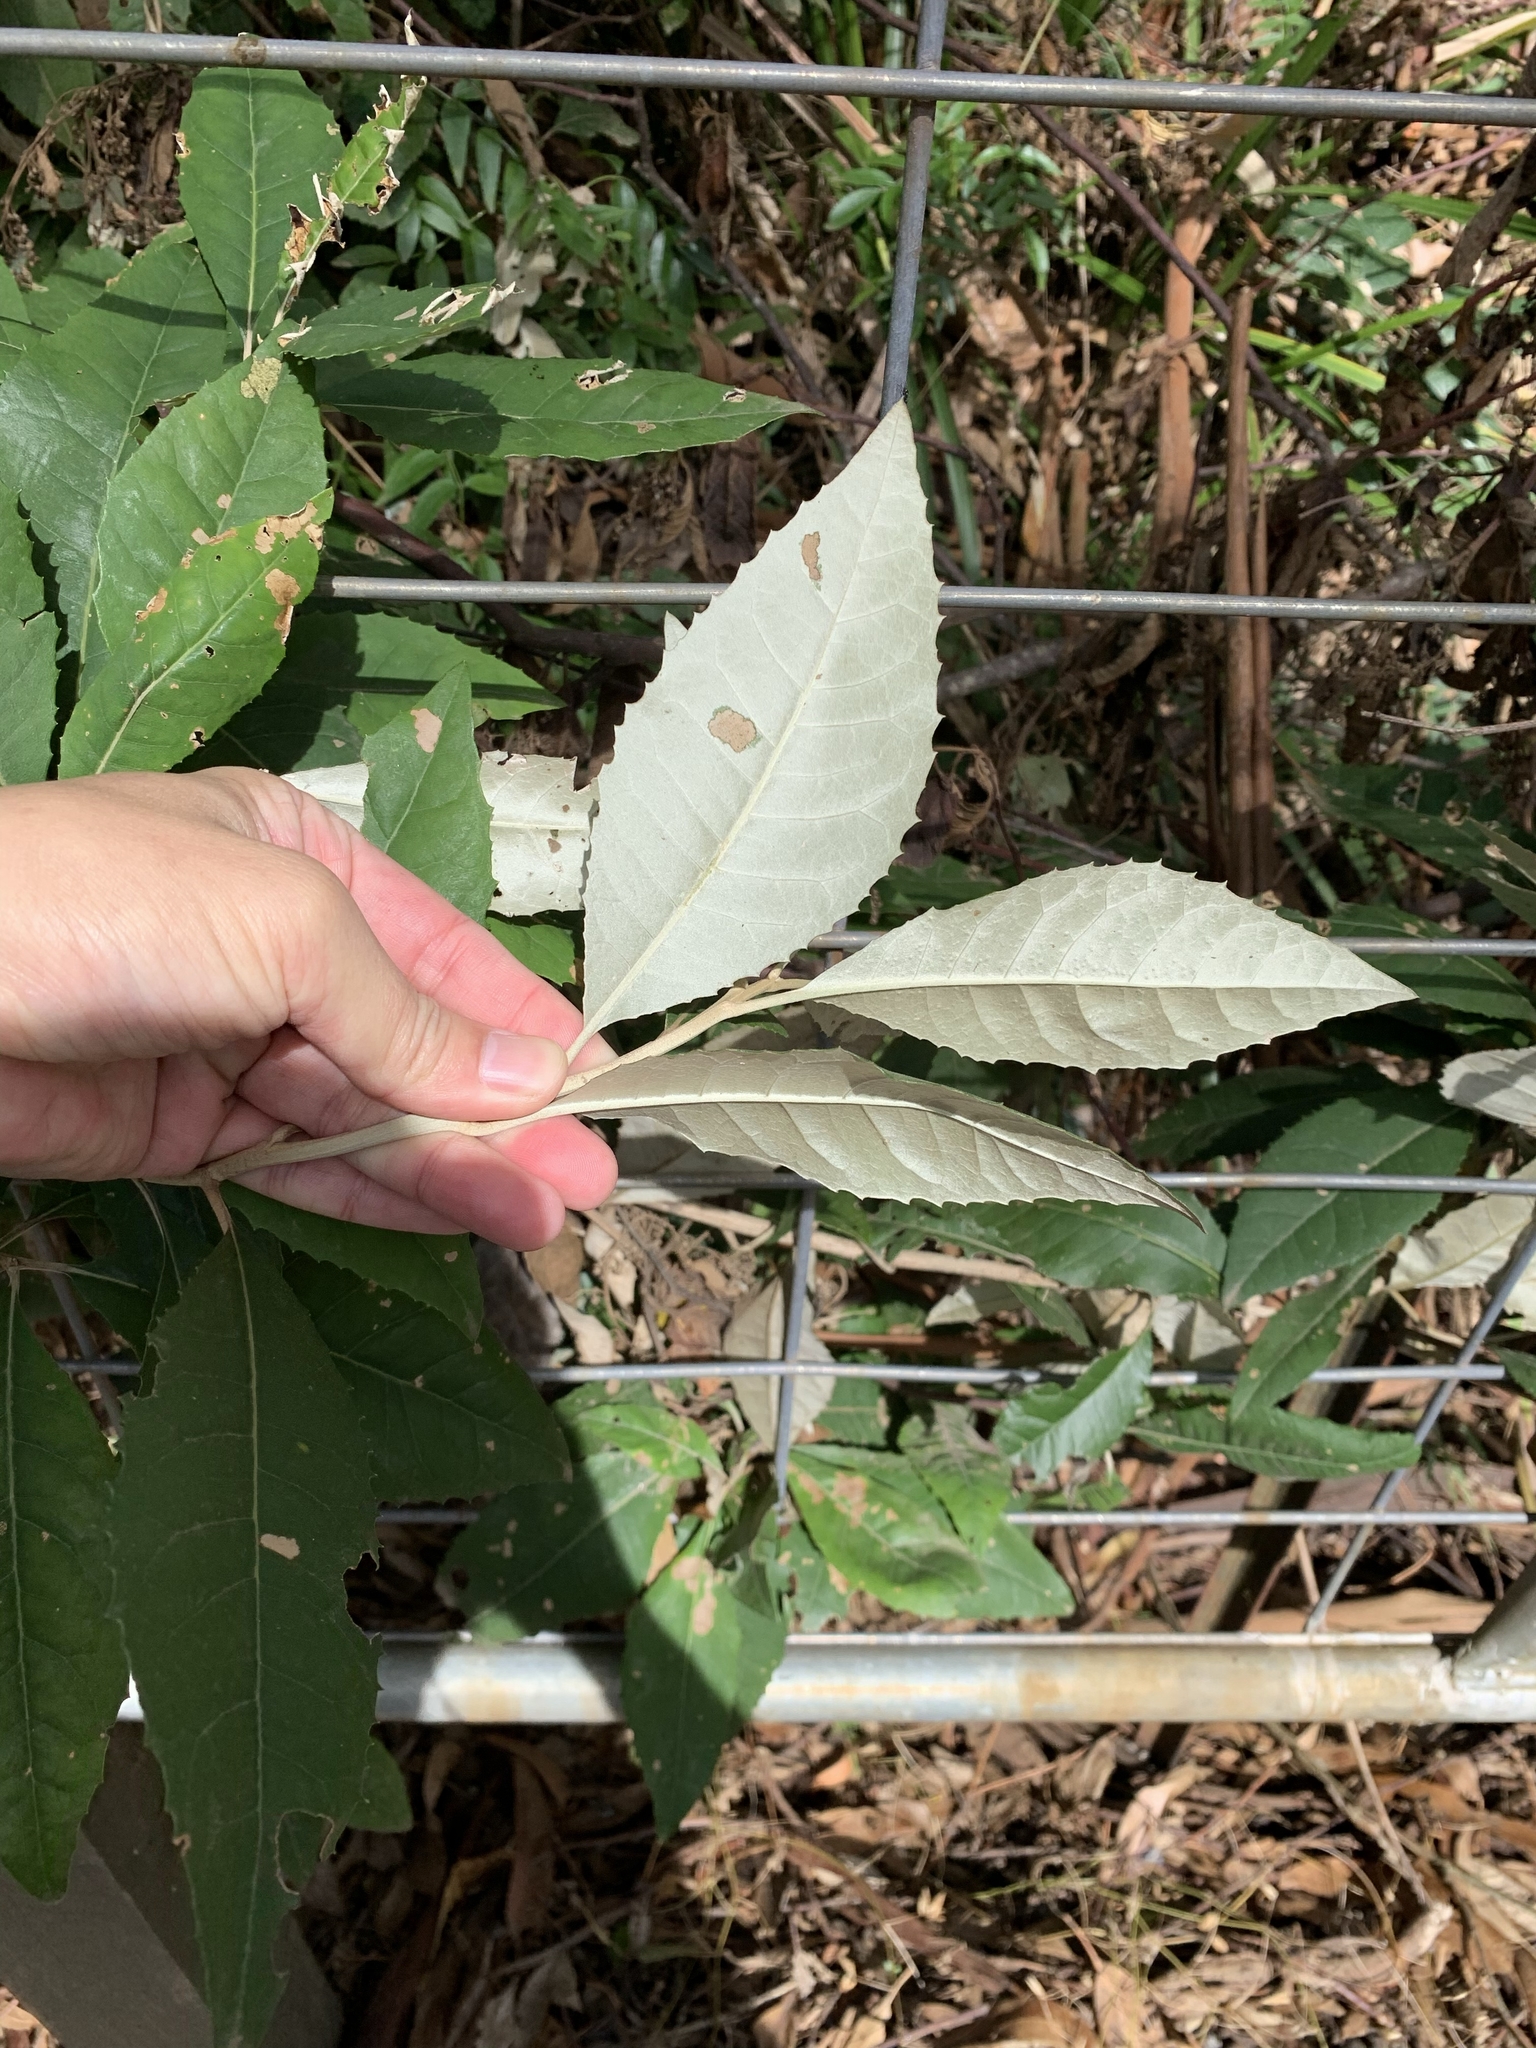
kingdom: Plantae
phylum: Tracheophyta
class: Magnoliopsida
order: Asterales
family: Asteraceae
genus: Olearia
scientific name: Olearia argophylla
